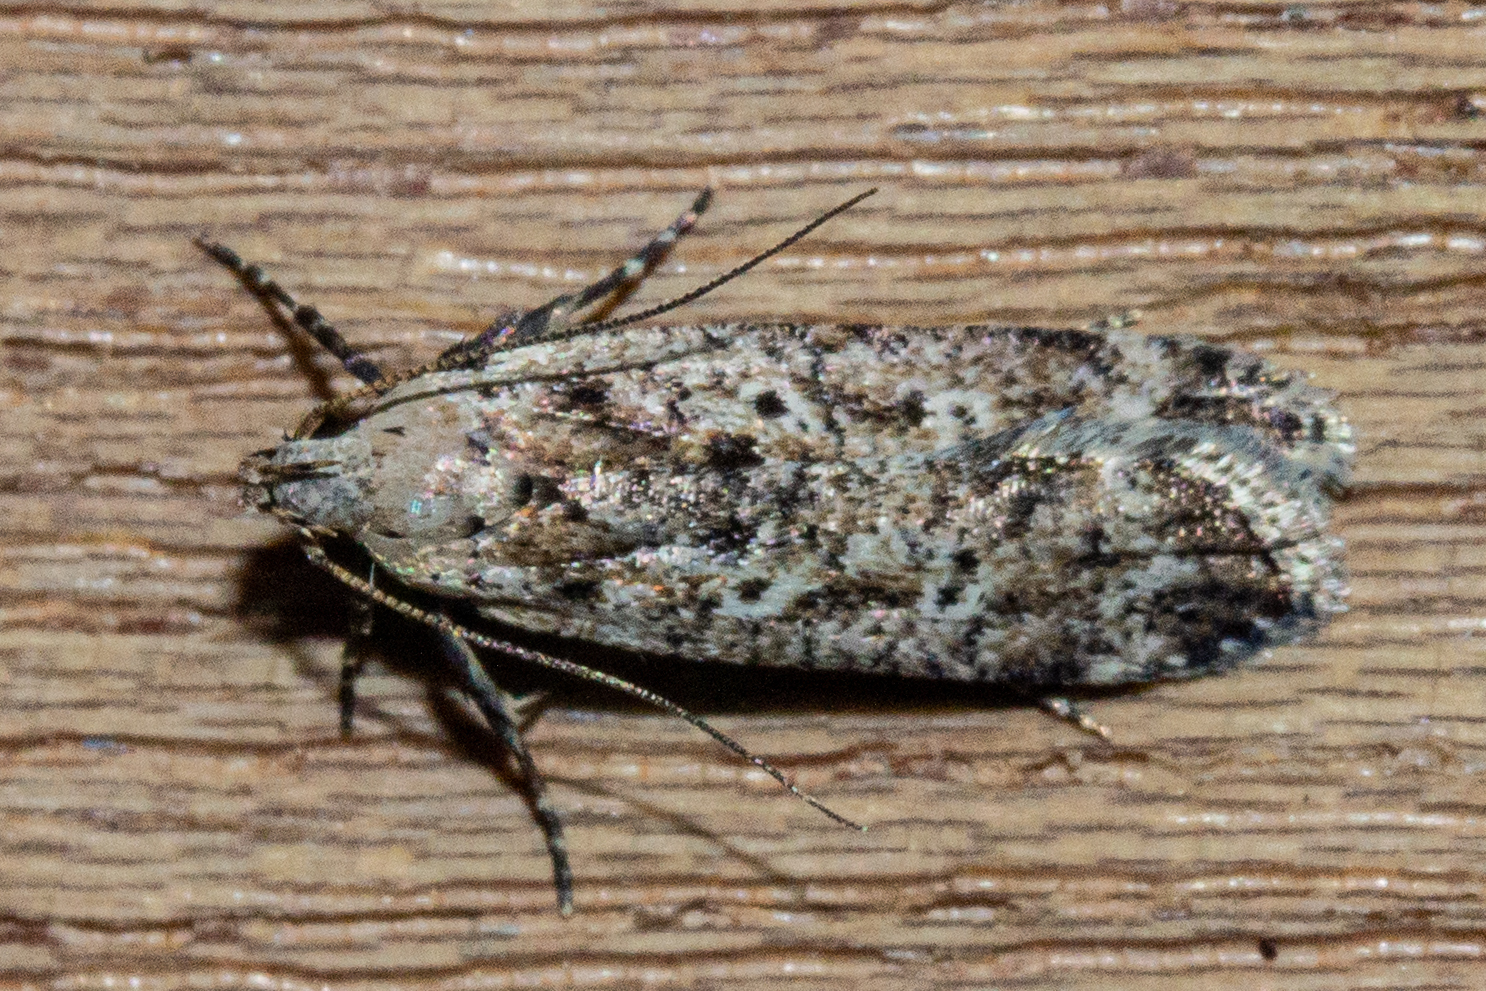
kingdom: Animalia
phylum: Arthropoda
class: Insecta
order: Lepidoptera
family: Gelechiidae
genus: Anisoplaca
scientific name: Anisoplaca achyrota
